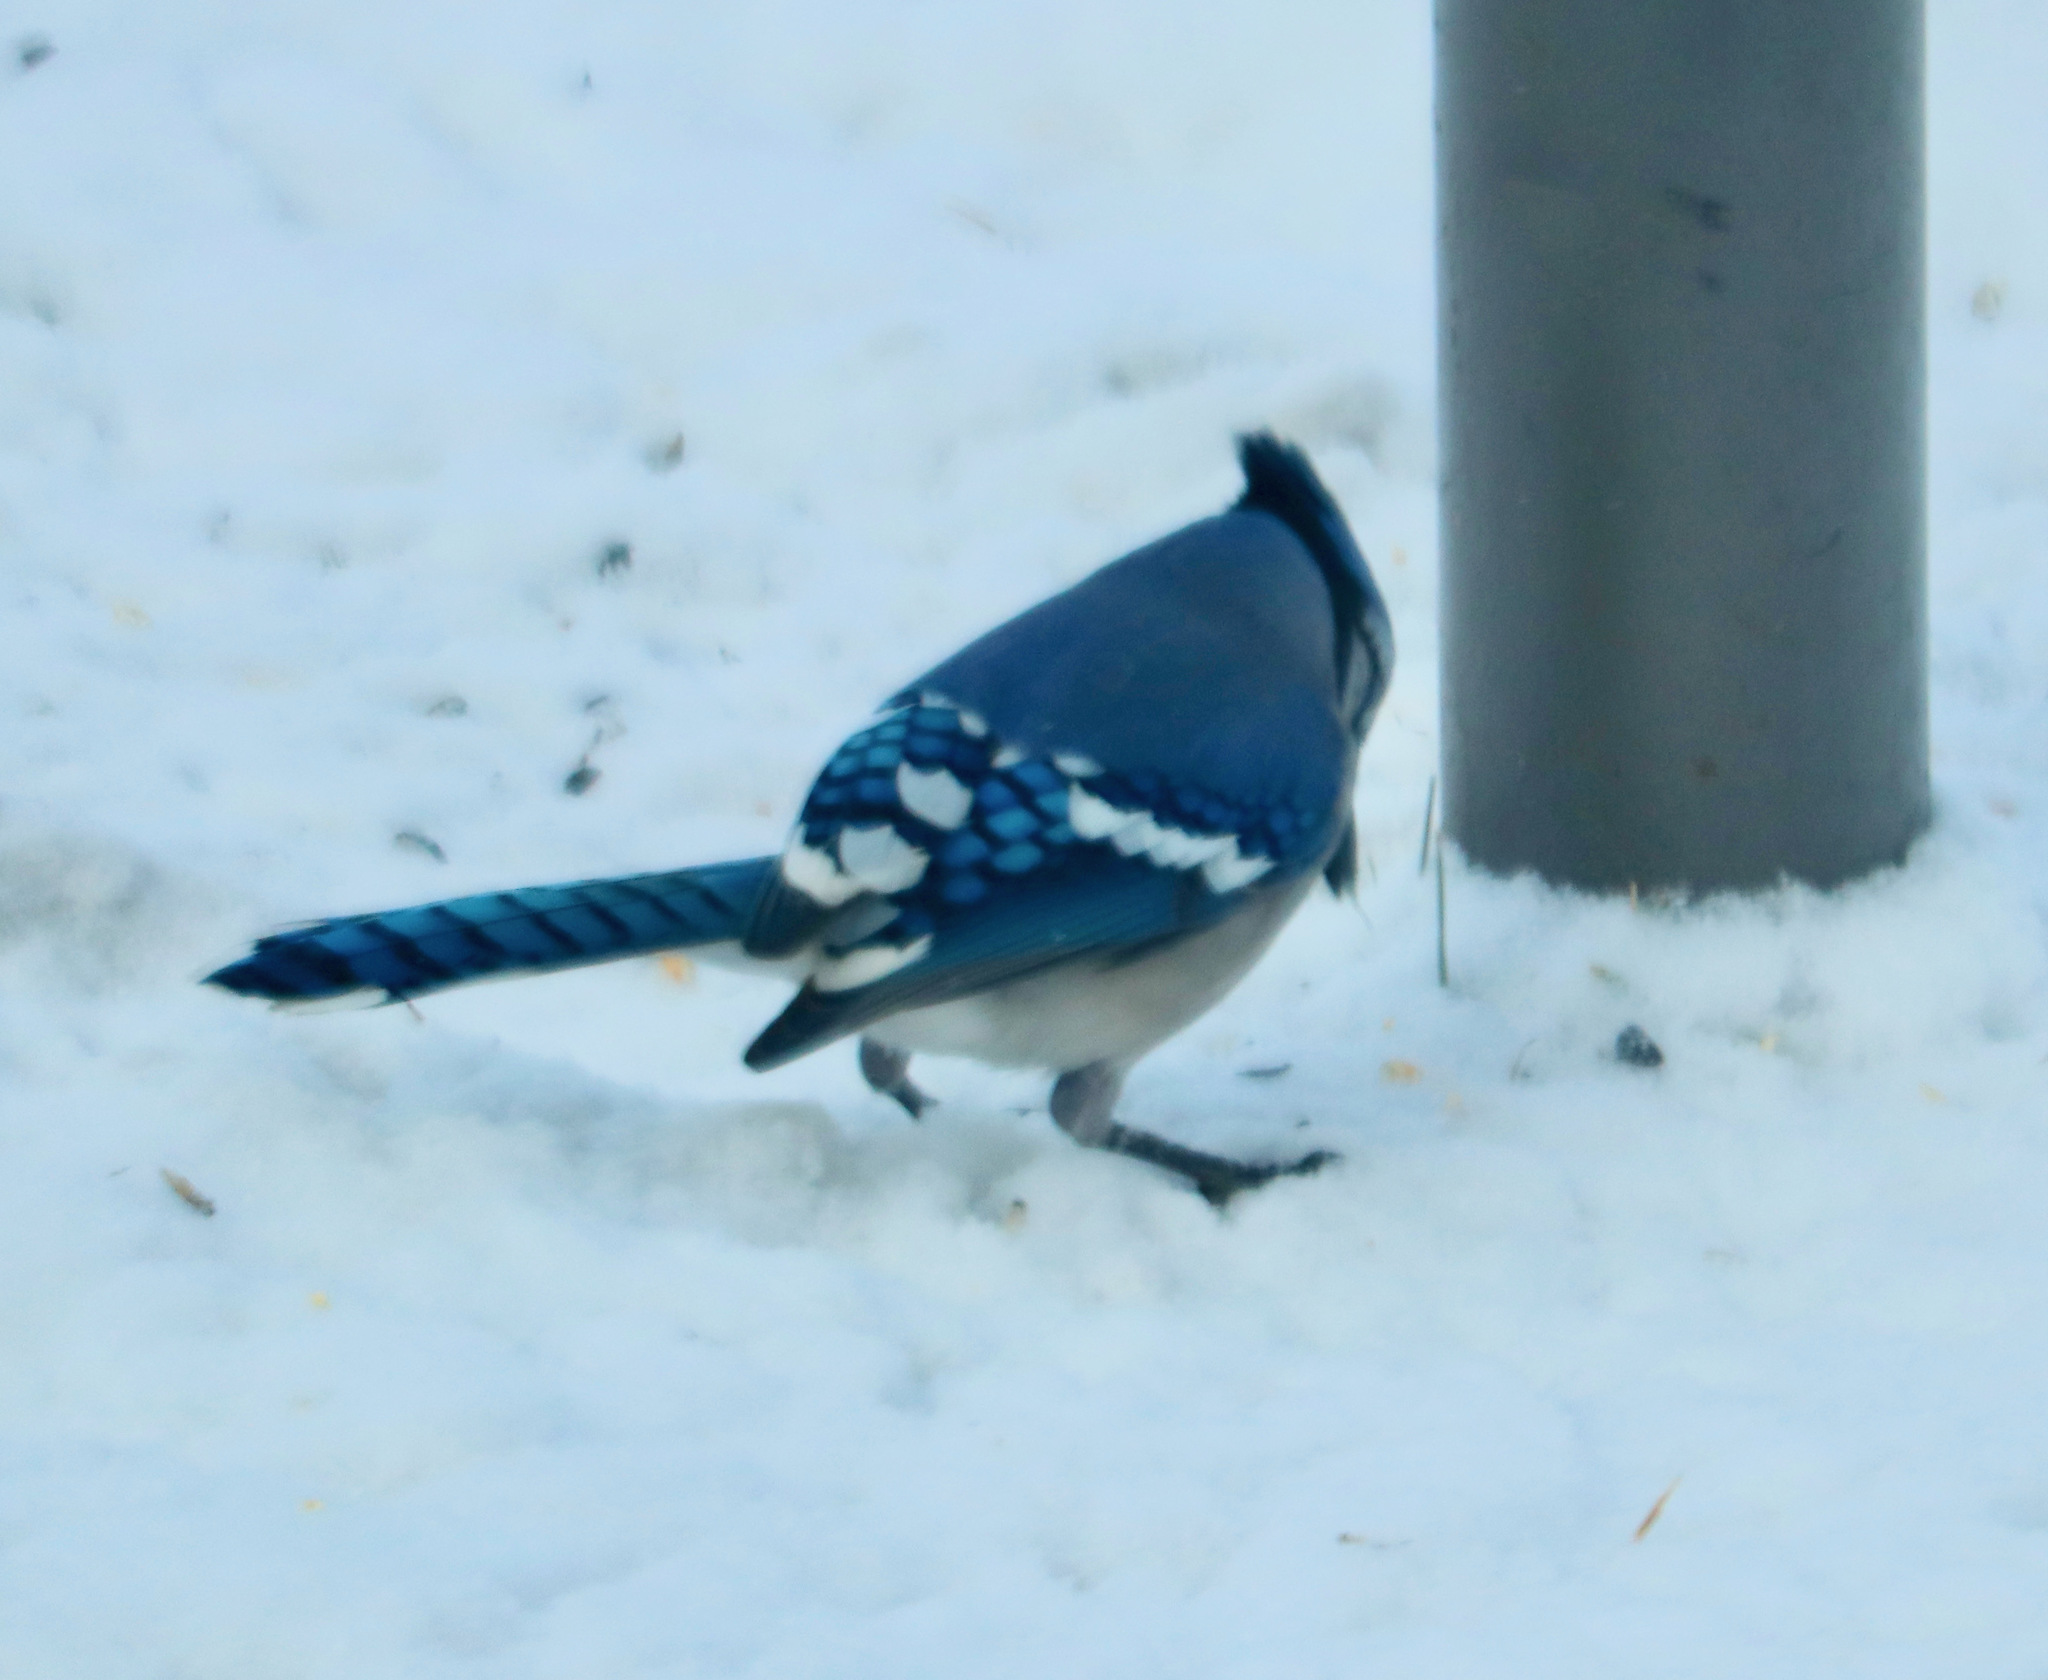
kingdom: Animalia
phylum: Chordata
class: Aves
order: Passeriformes
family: Corvidae
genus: Cyanocitta
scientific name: Cyanocitta cristata
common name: Blue jay
